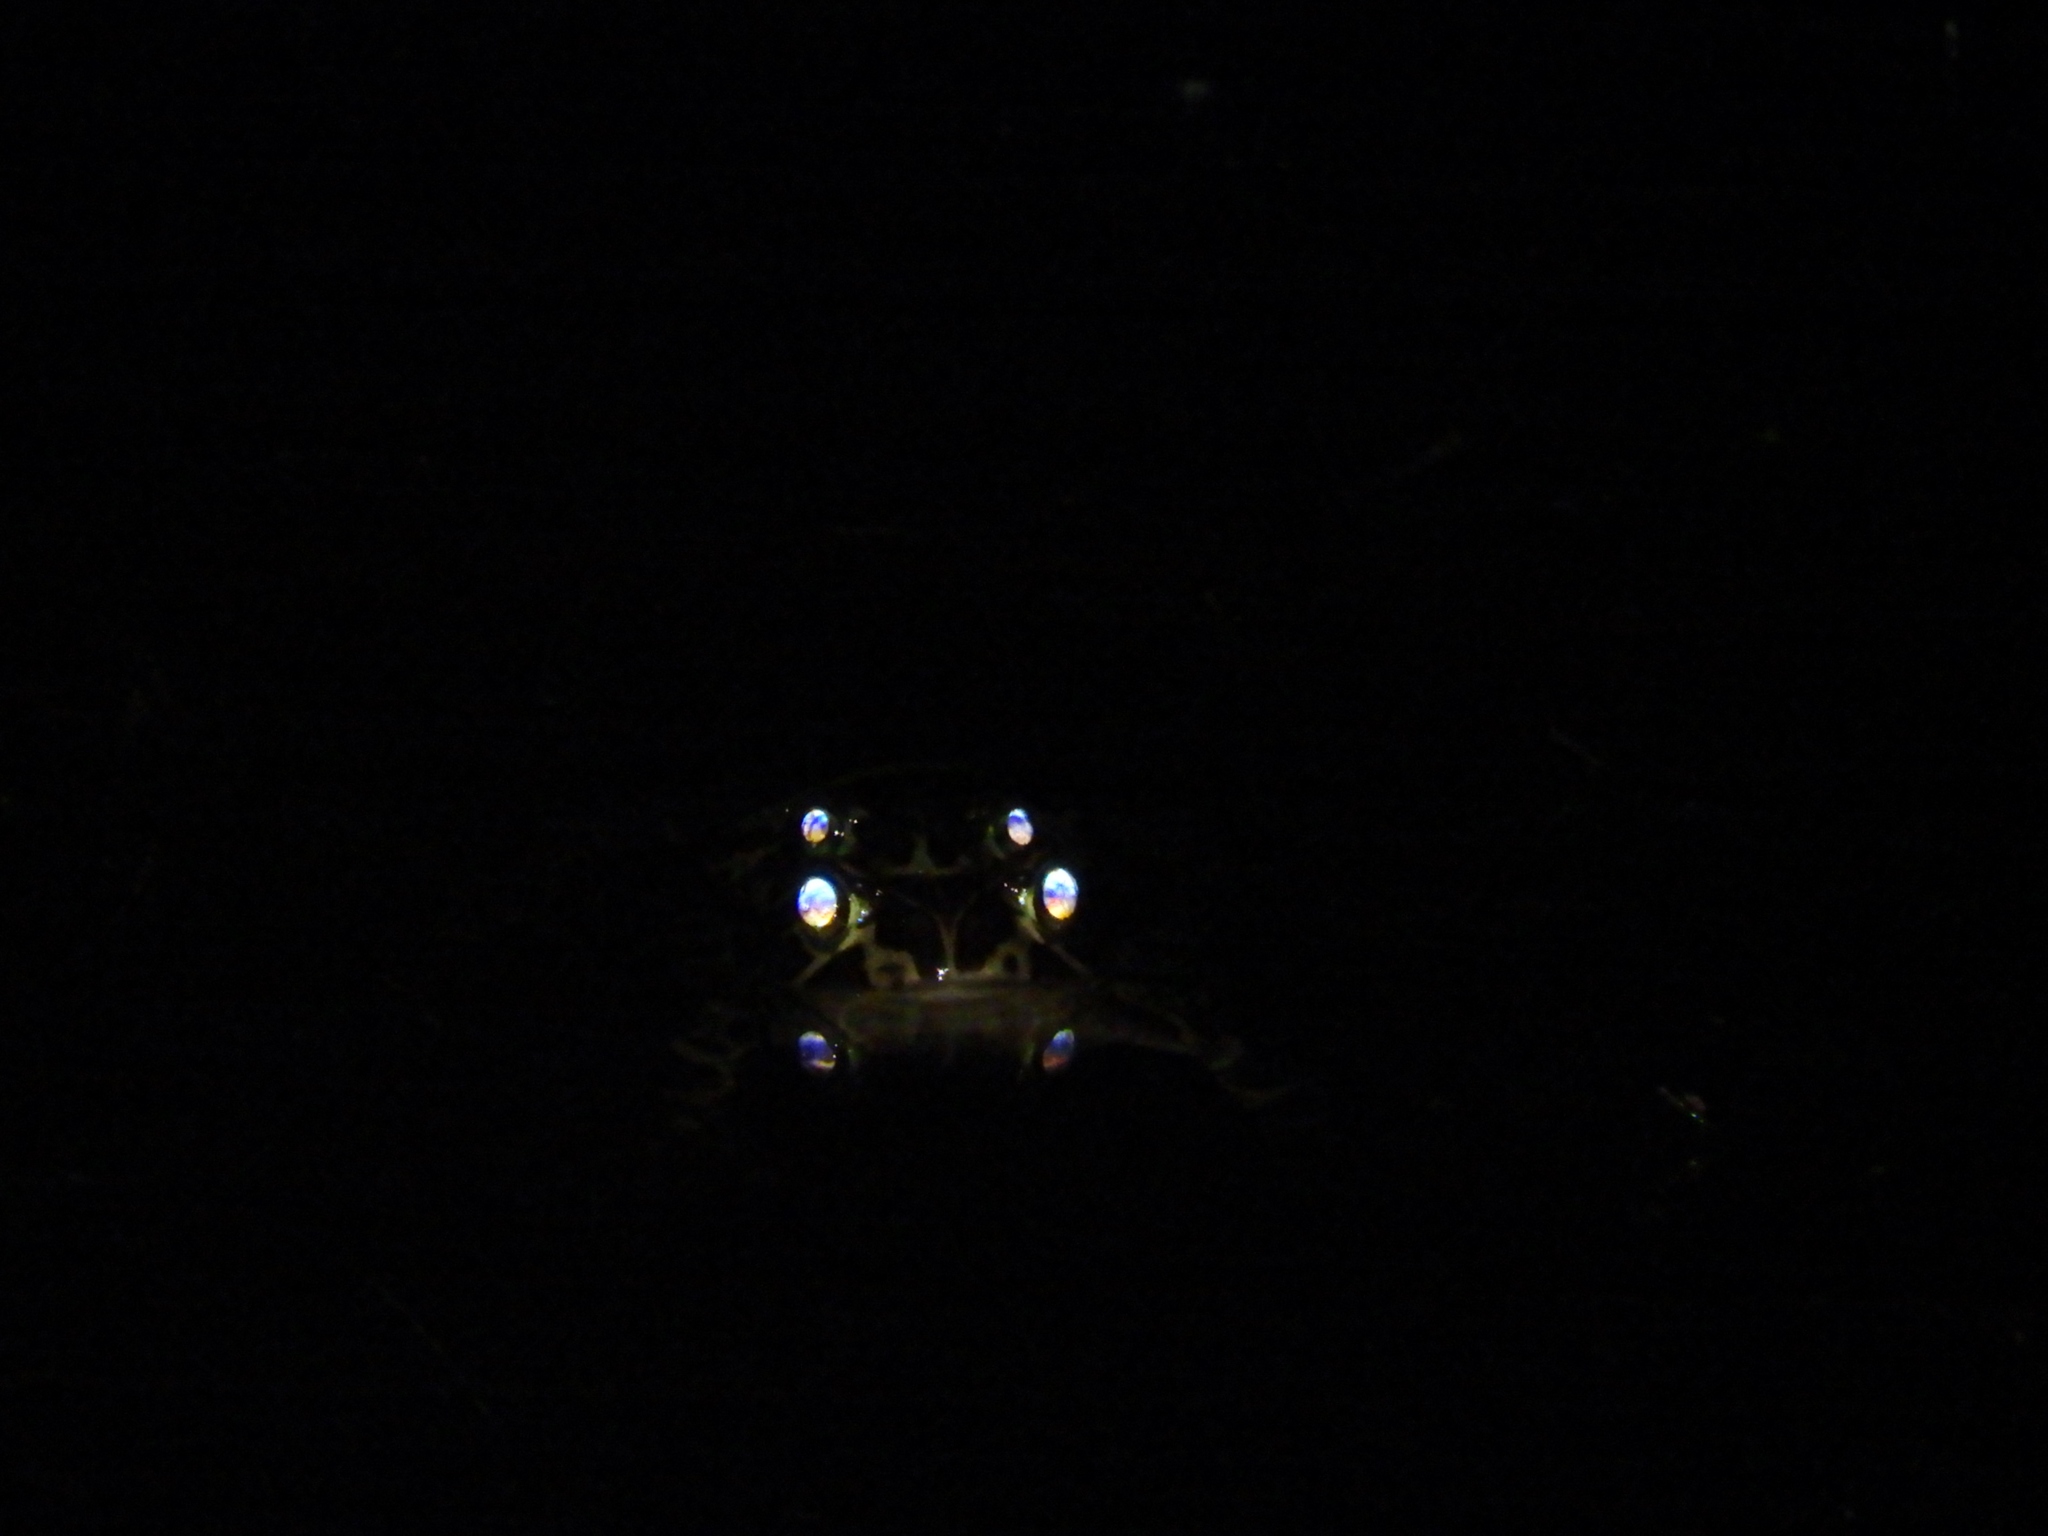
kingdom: Animalia
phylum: Chordata
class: Amphibia
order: Anura
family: Bufonidae
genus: Sclerophrys
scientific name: Sclerophrys pantherina
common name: Panther toad
